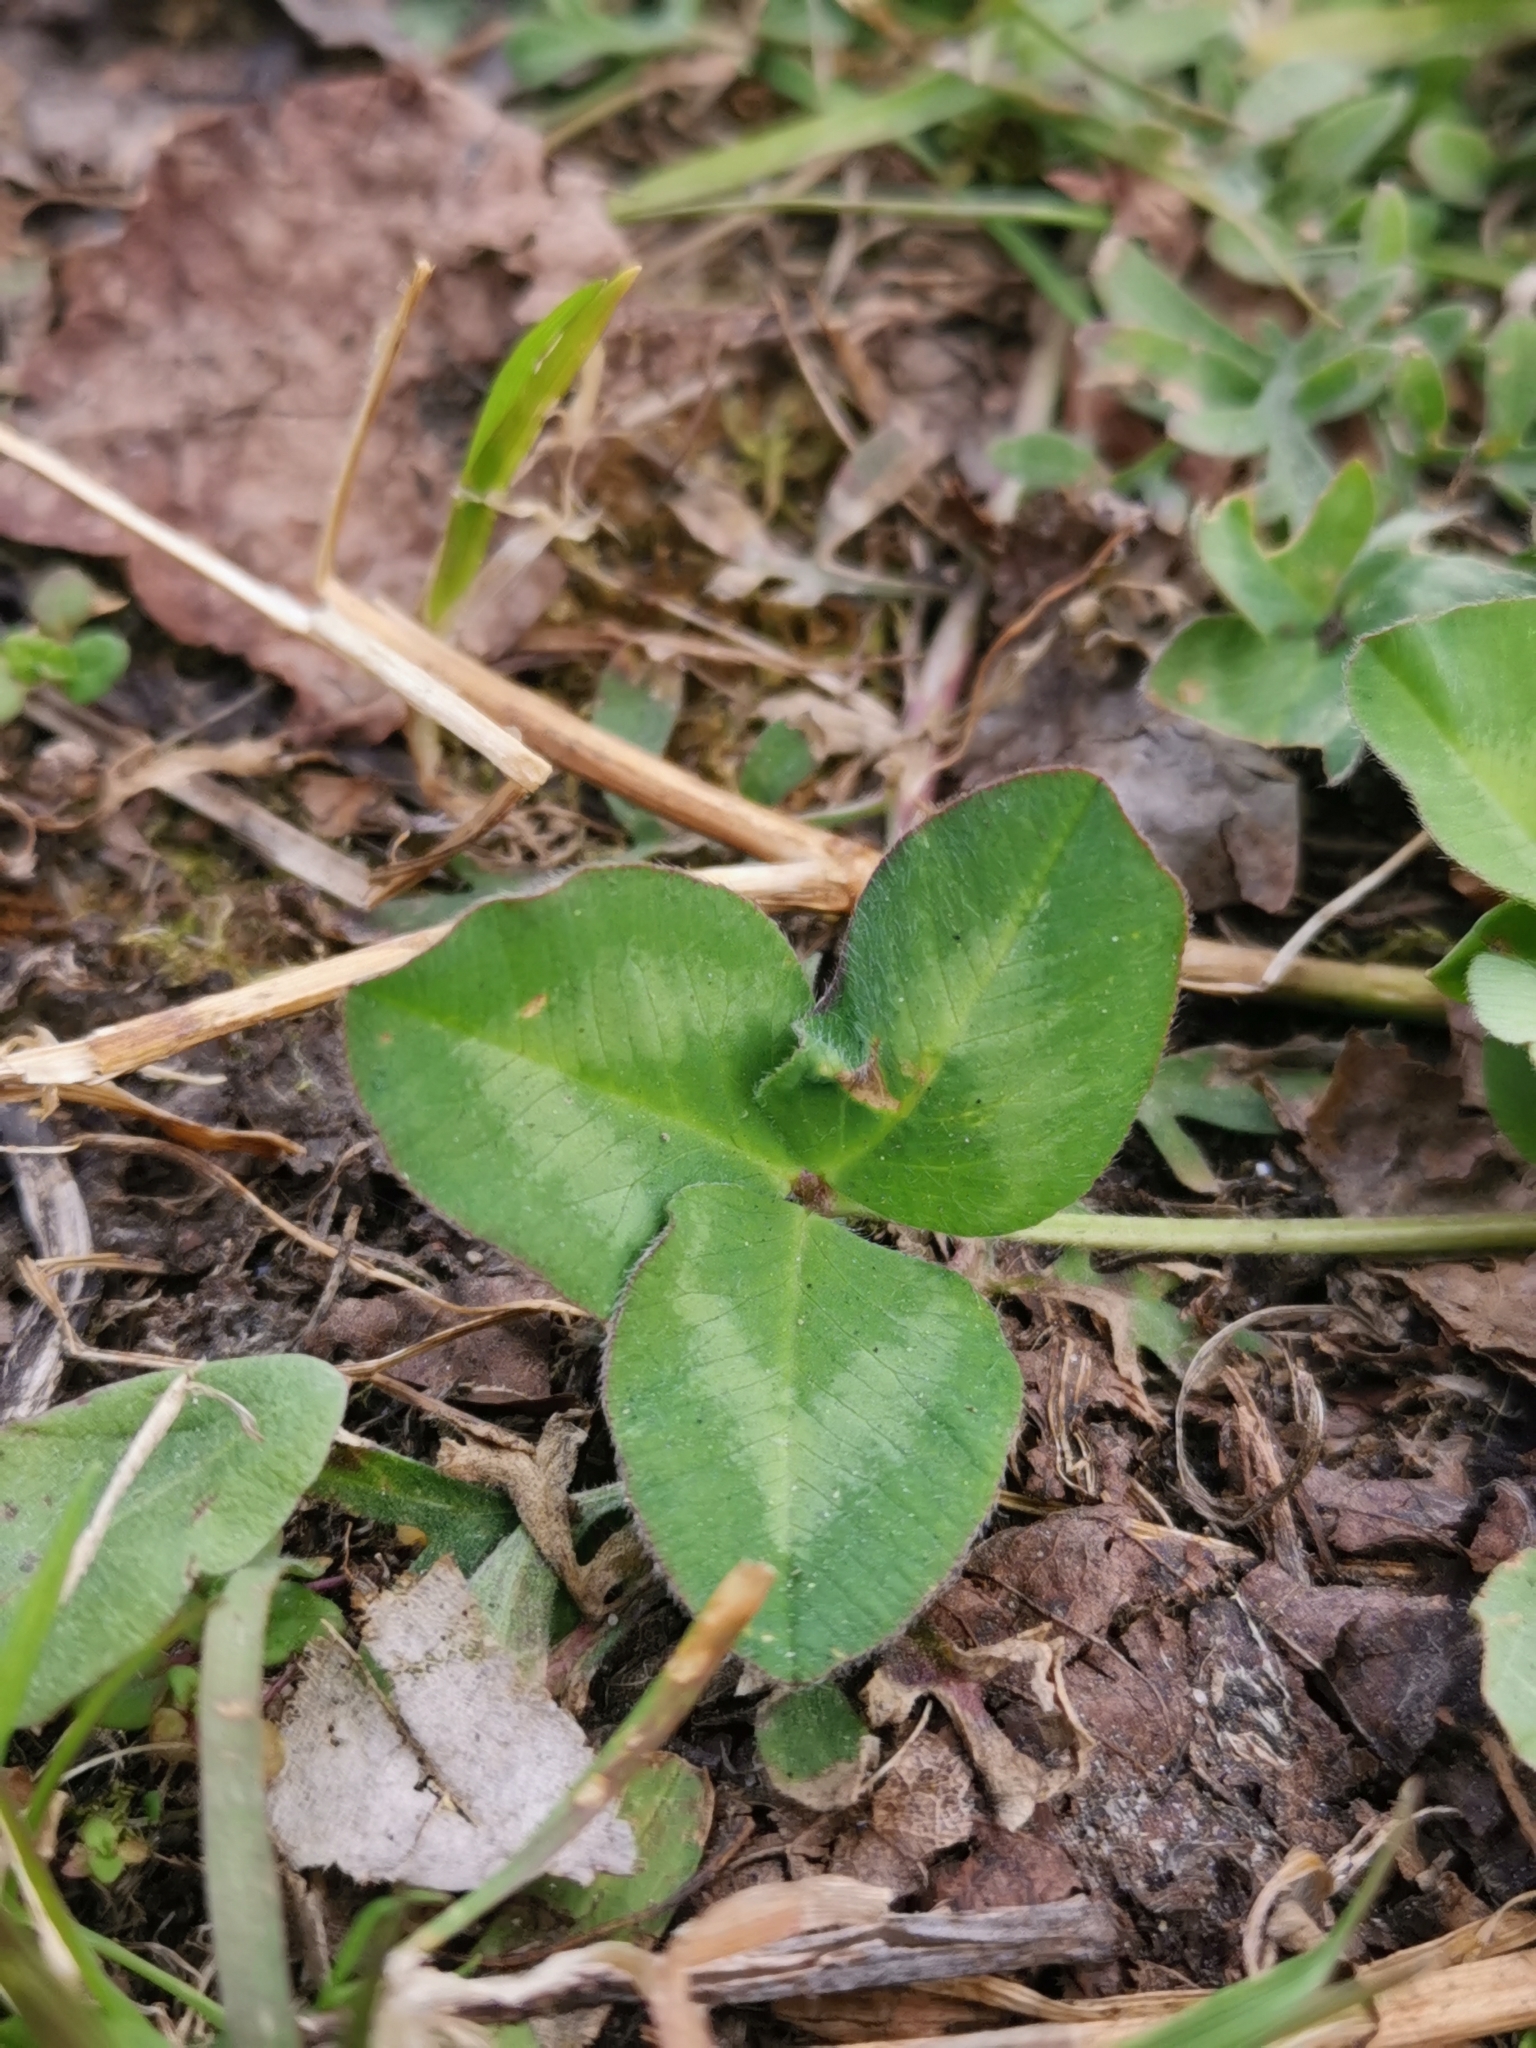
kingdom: Plantae
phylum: Tracheophyta
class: Magnoliopsida
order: Fabales
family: Fabaceae
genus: Trifolium
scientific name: Trifolium pratense
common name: Red clover
